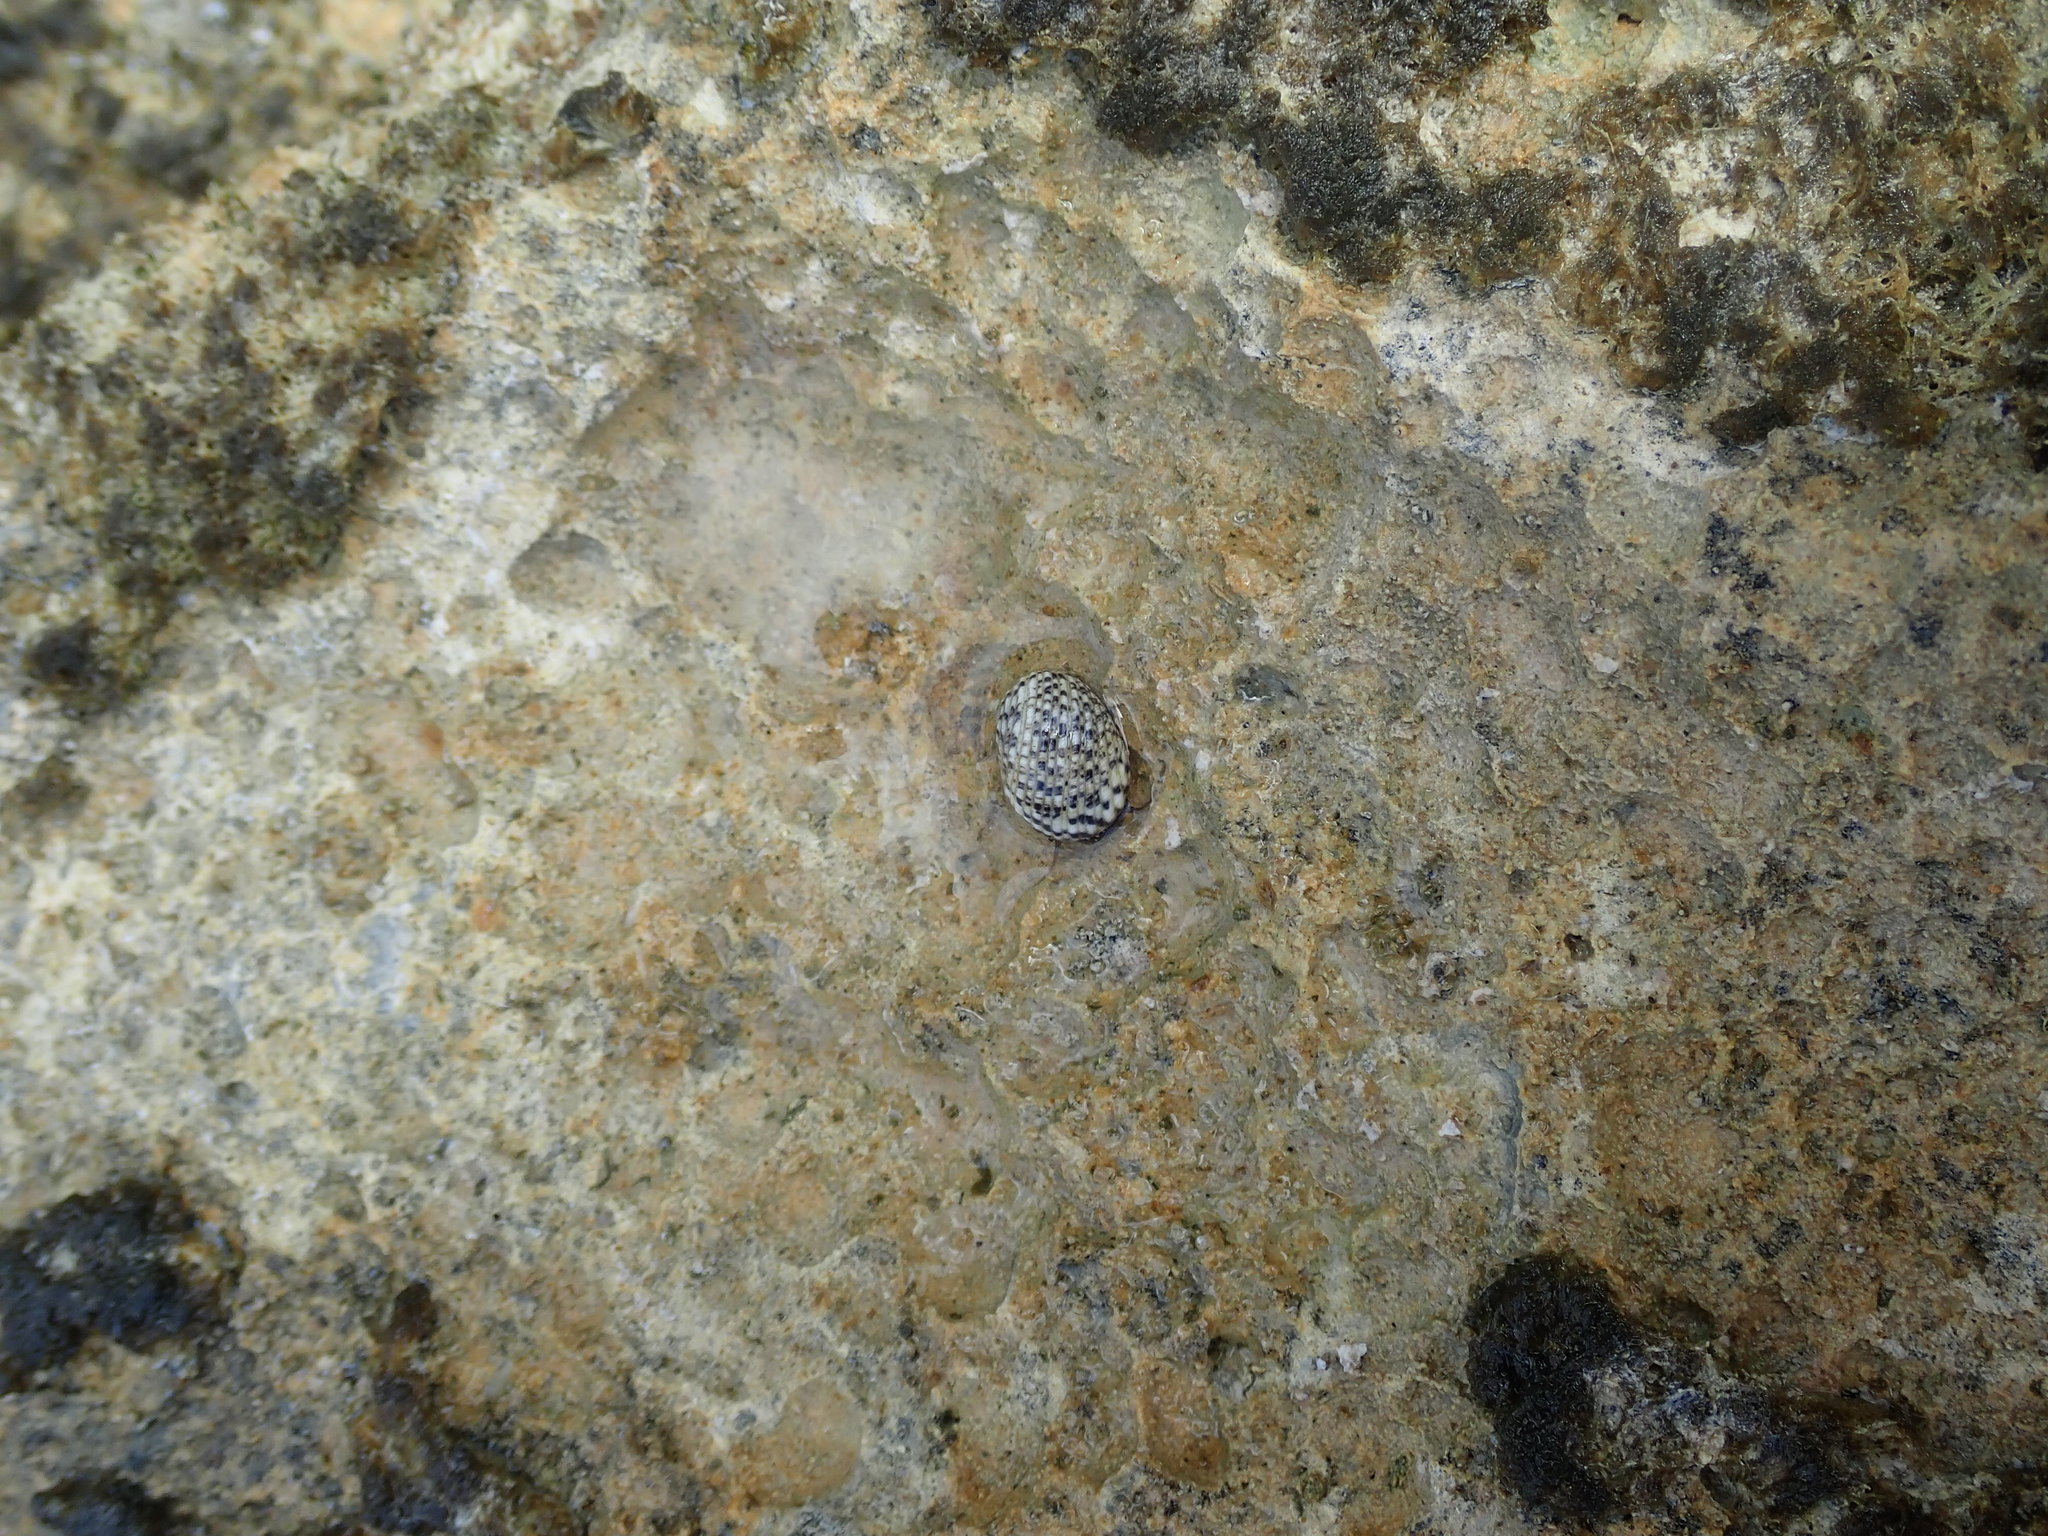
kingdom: Animalia
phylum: Mollusca
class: Gastropoda
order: Cycloneritida
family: Neritidae
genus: Nerita
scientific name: Nerita tessellata
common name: Checkered nerite
